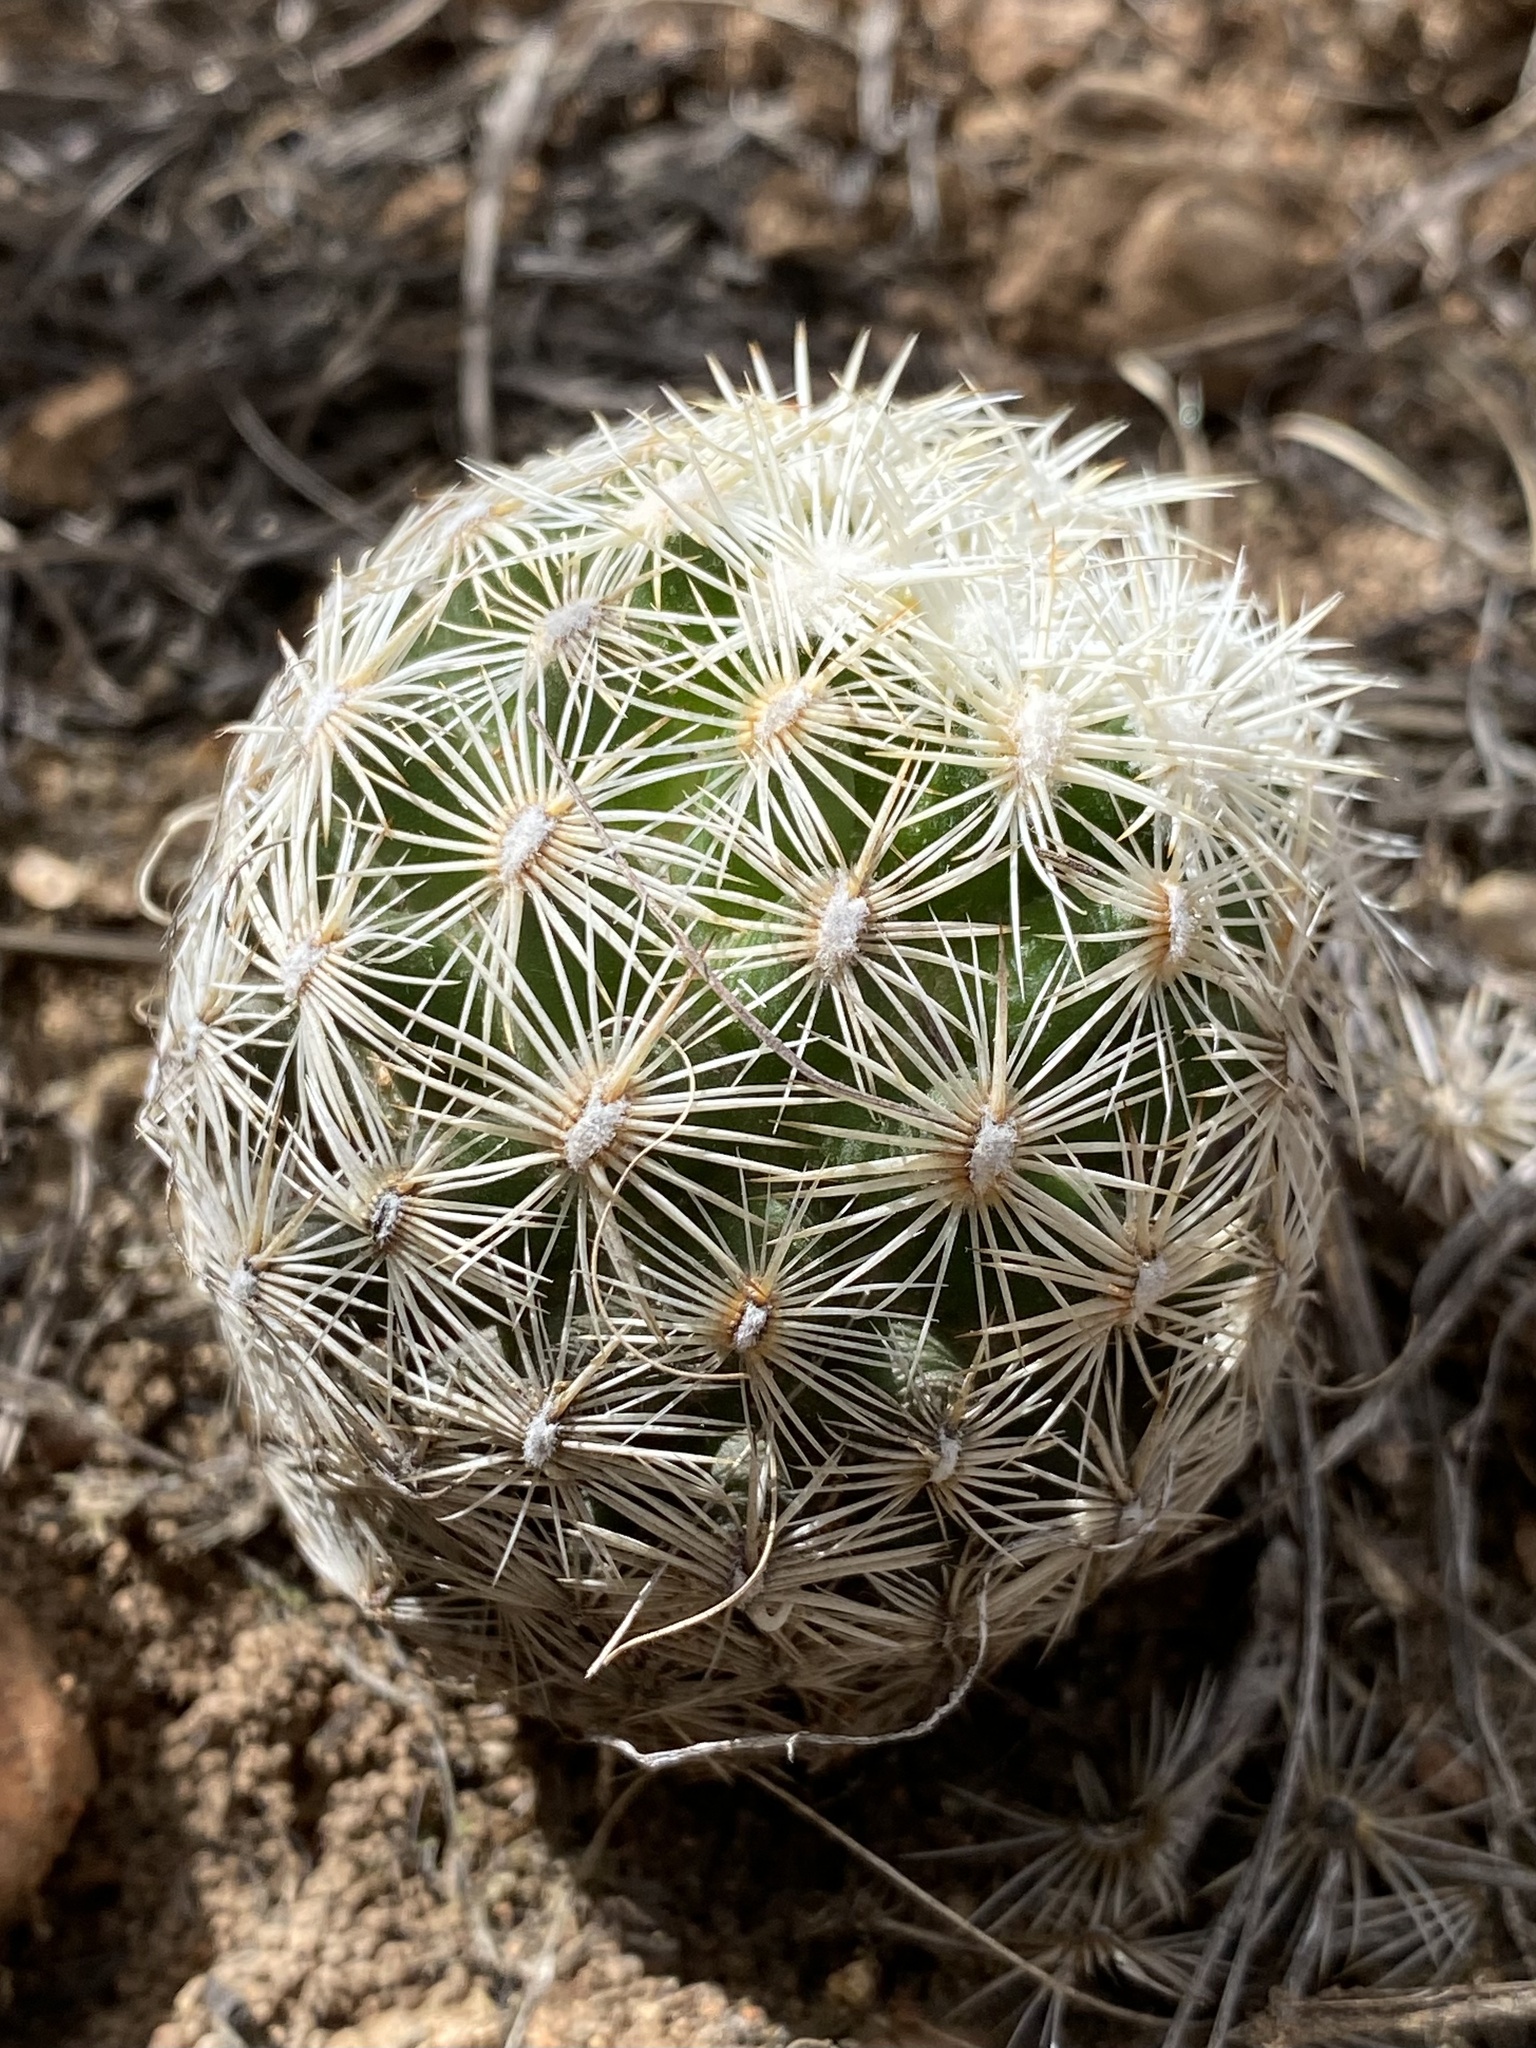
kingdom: Plantae
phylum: Tracheophyta
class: Magnoliopsida
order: Caryophyllales
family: Cactaceae
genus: Pelecyphora
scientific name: Pelecyphora vivipara
